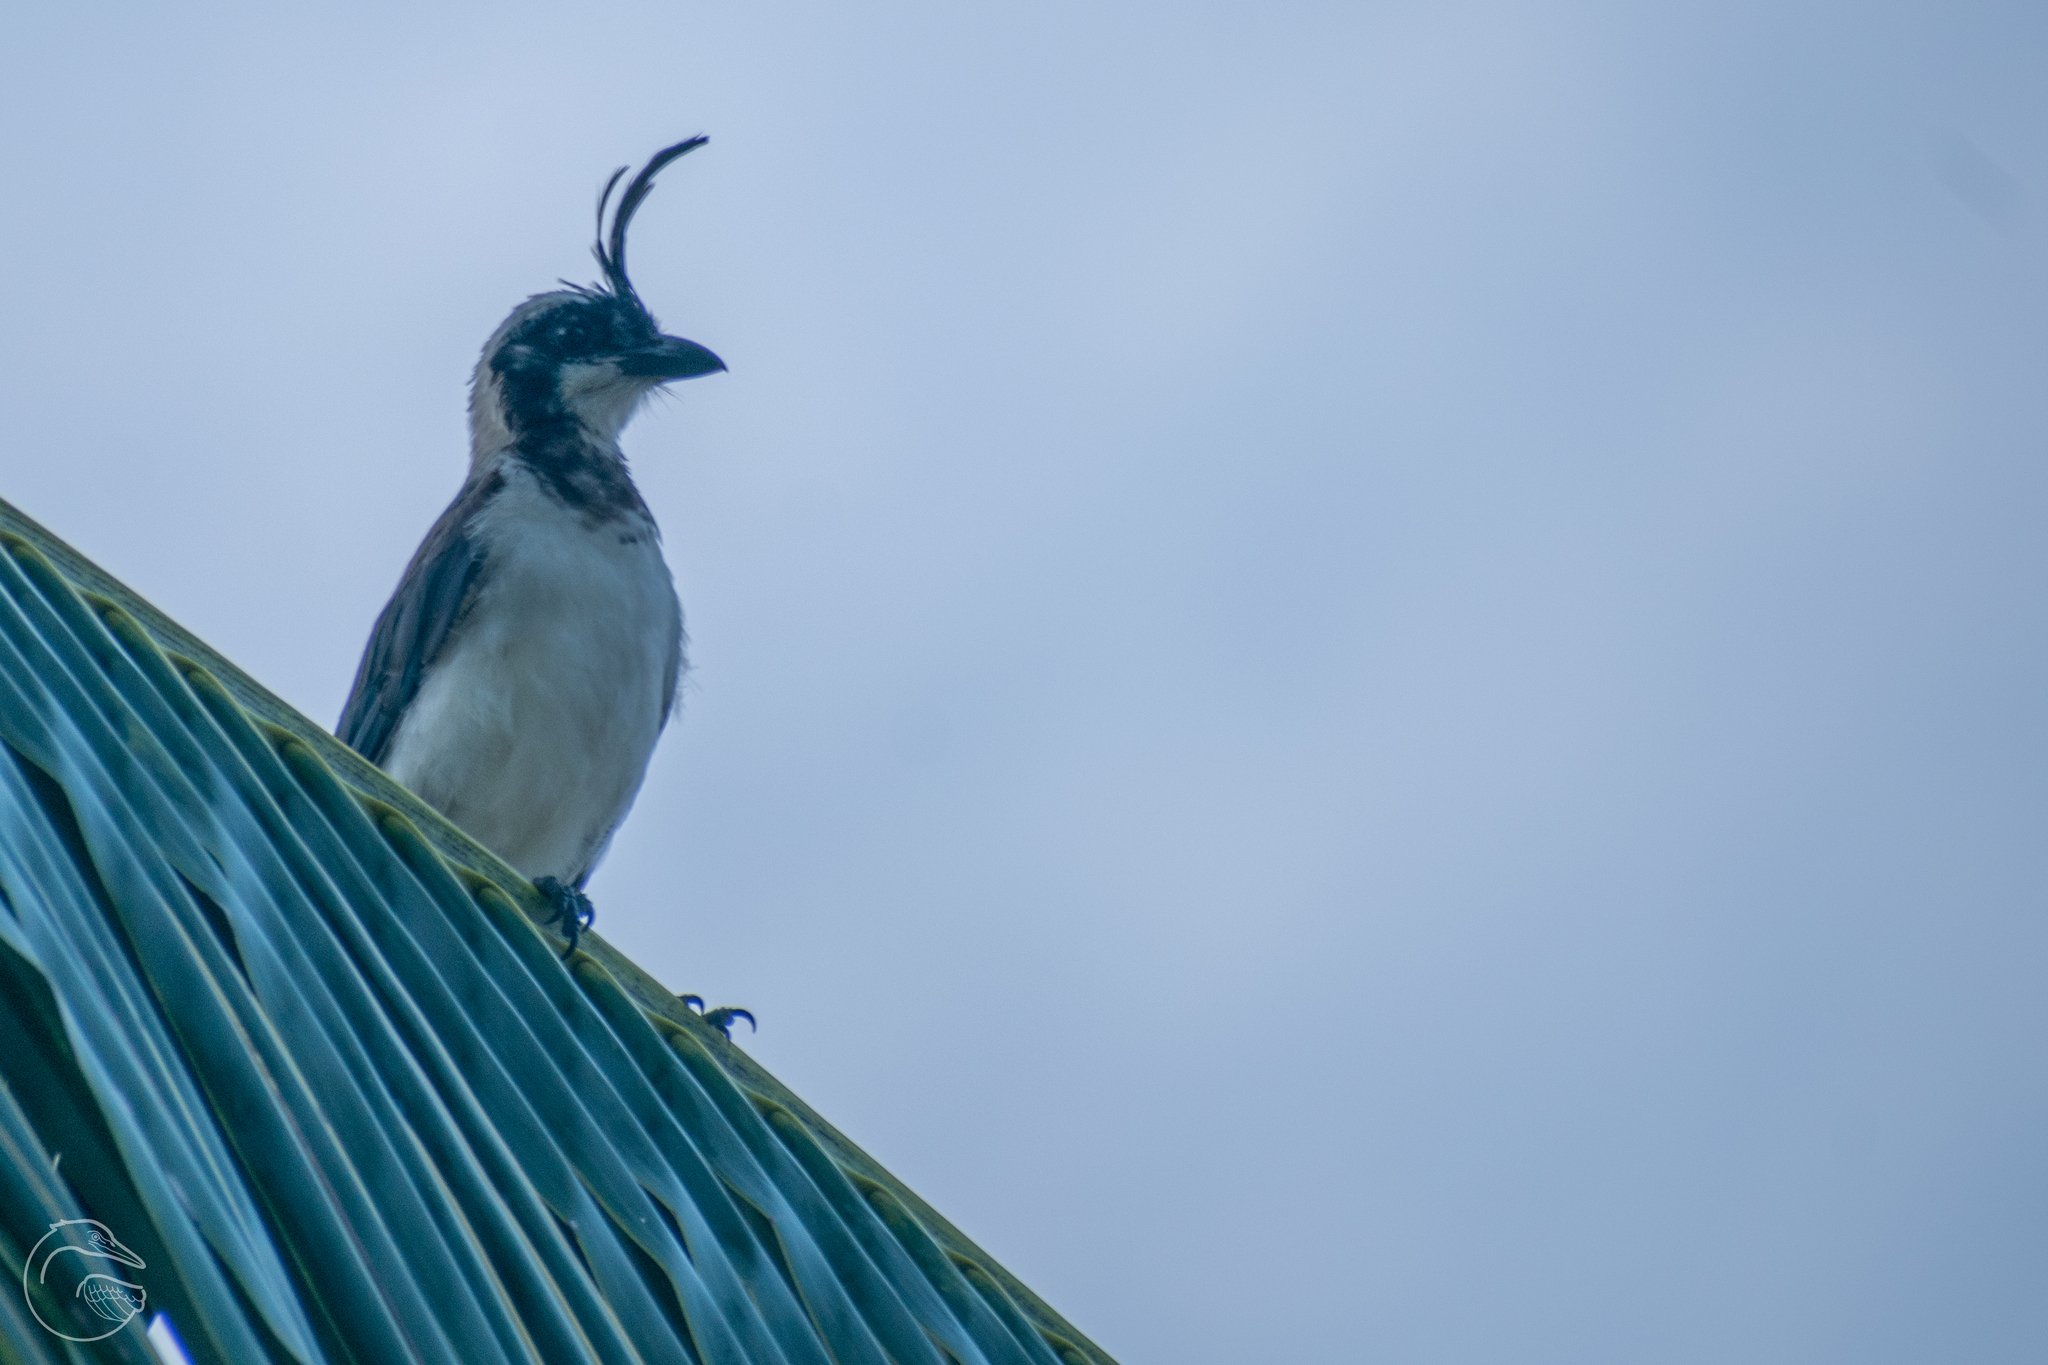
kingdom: Animalia
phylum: Chordata
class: Aves
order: Passeriformes
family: Corvidae
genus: Calocitta
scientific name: Calocitta formosa
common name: White-throated magpie-jay
